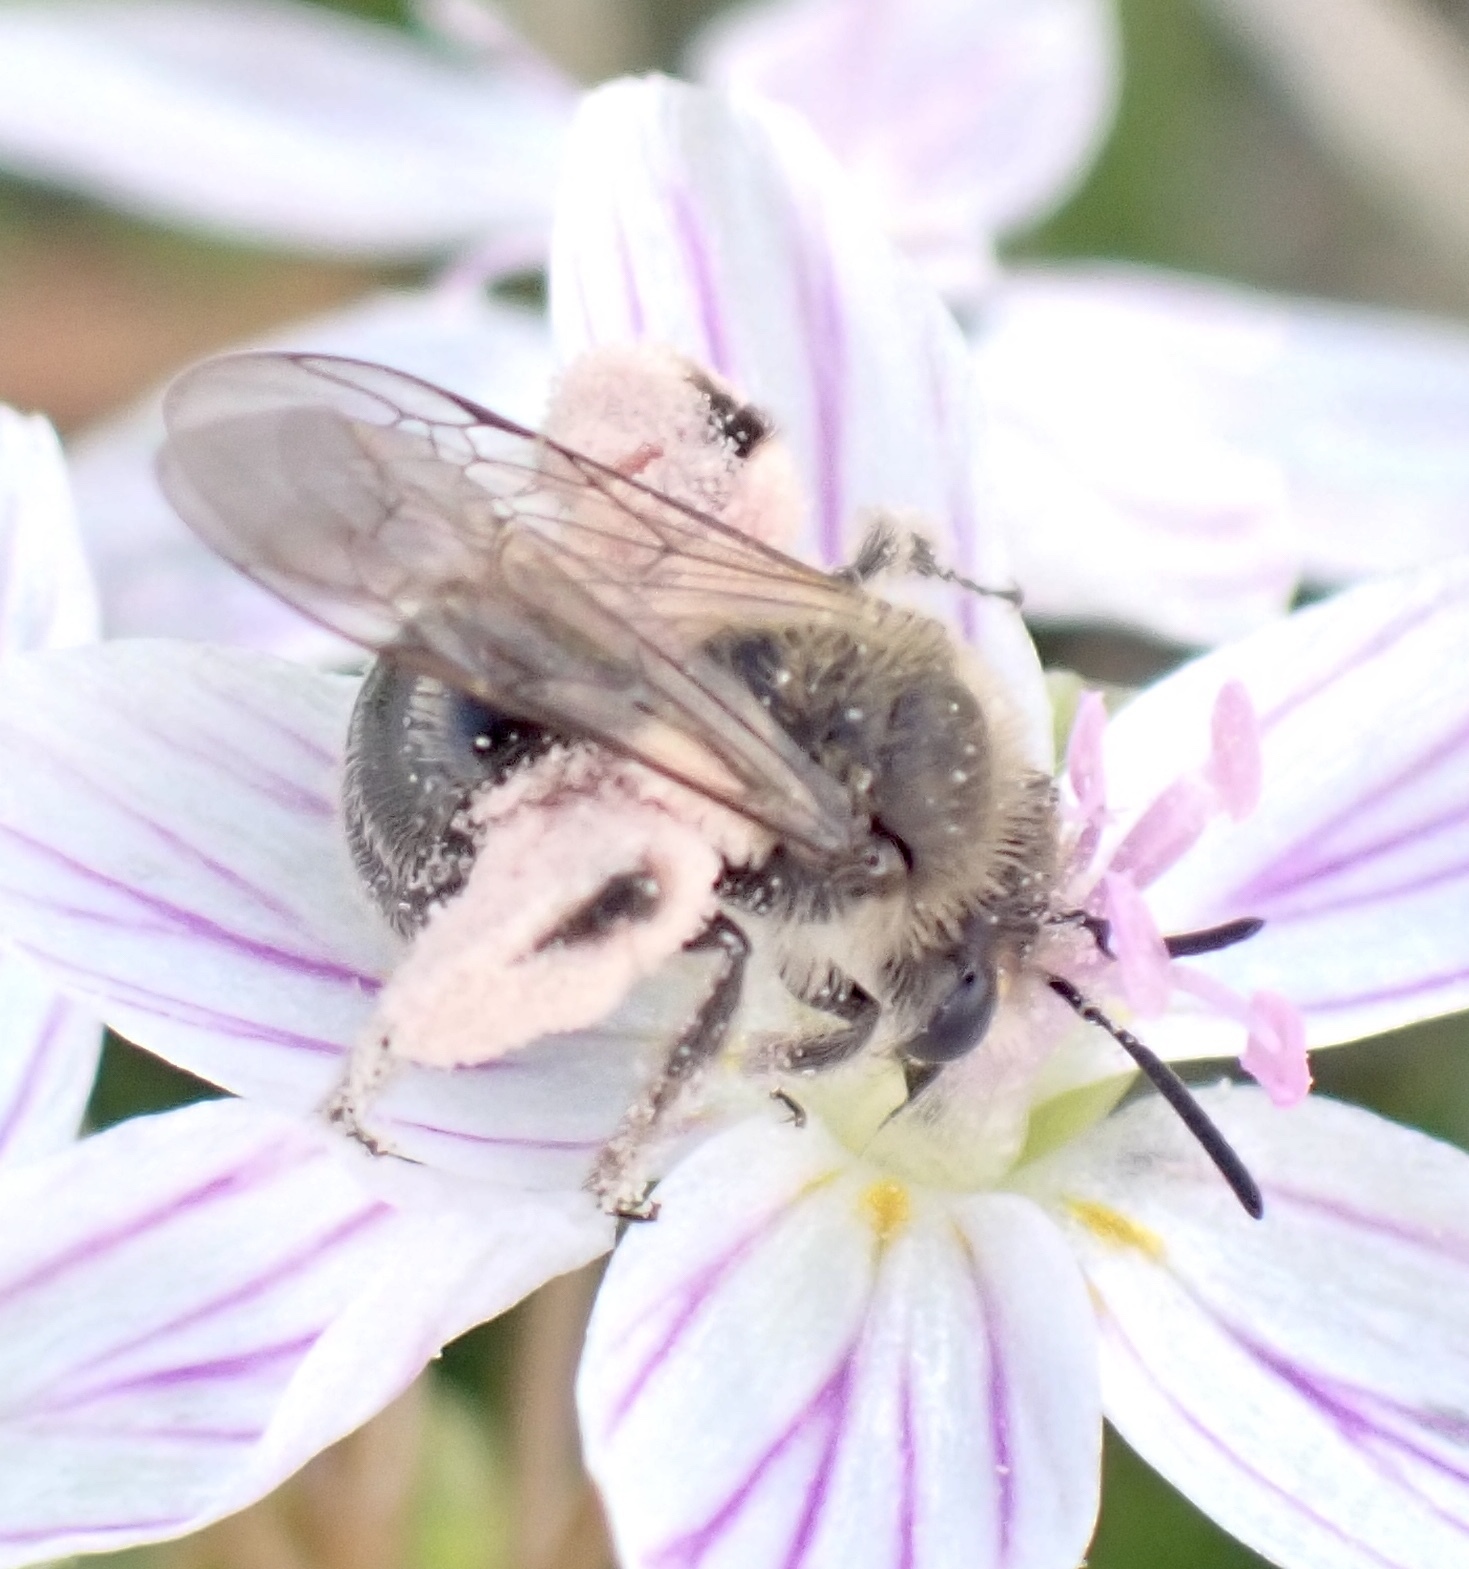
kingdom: Animalia
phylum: Arthropoda
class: Insecta
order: Hymenoptera
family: Andrenidae
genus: Andrena
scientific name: Andrena erigeniae
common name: Spring beauty miner
